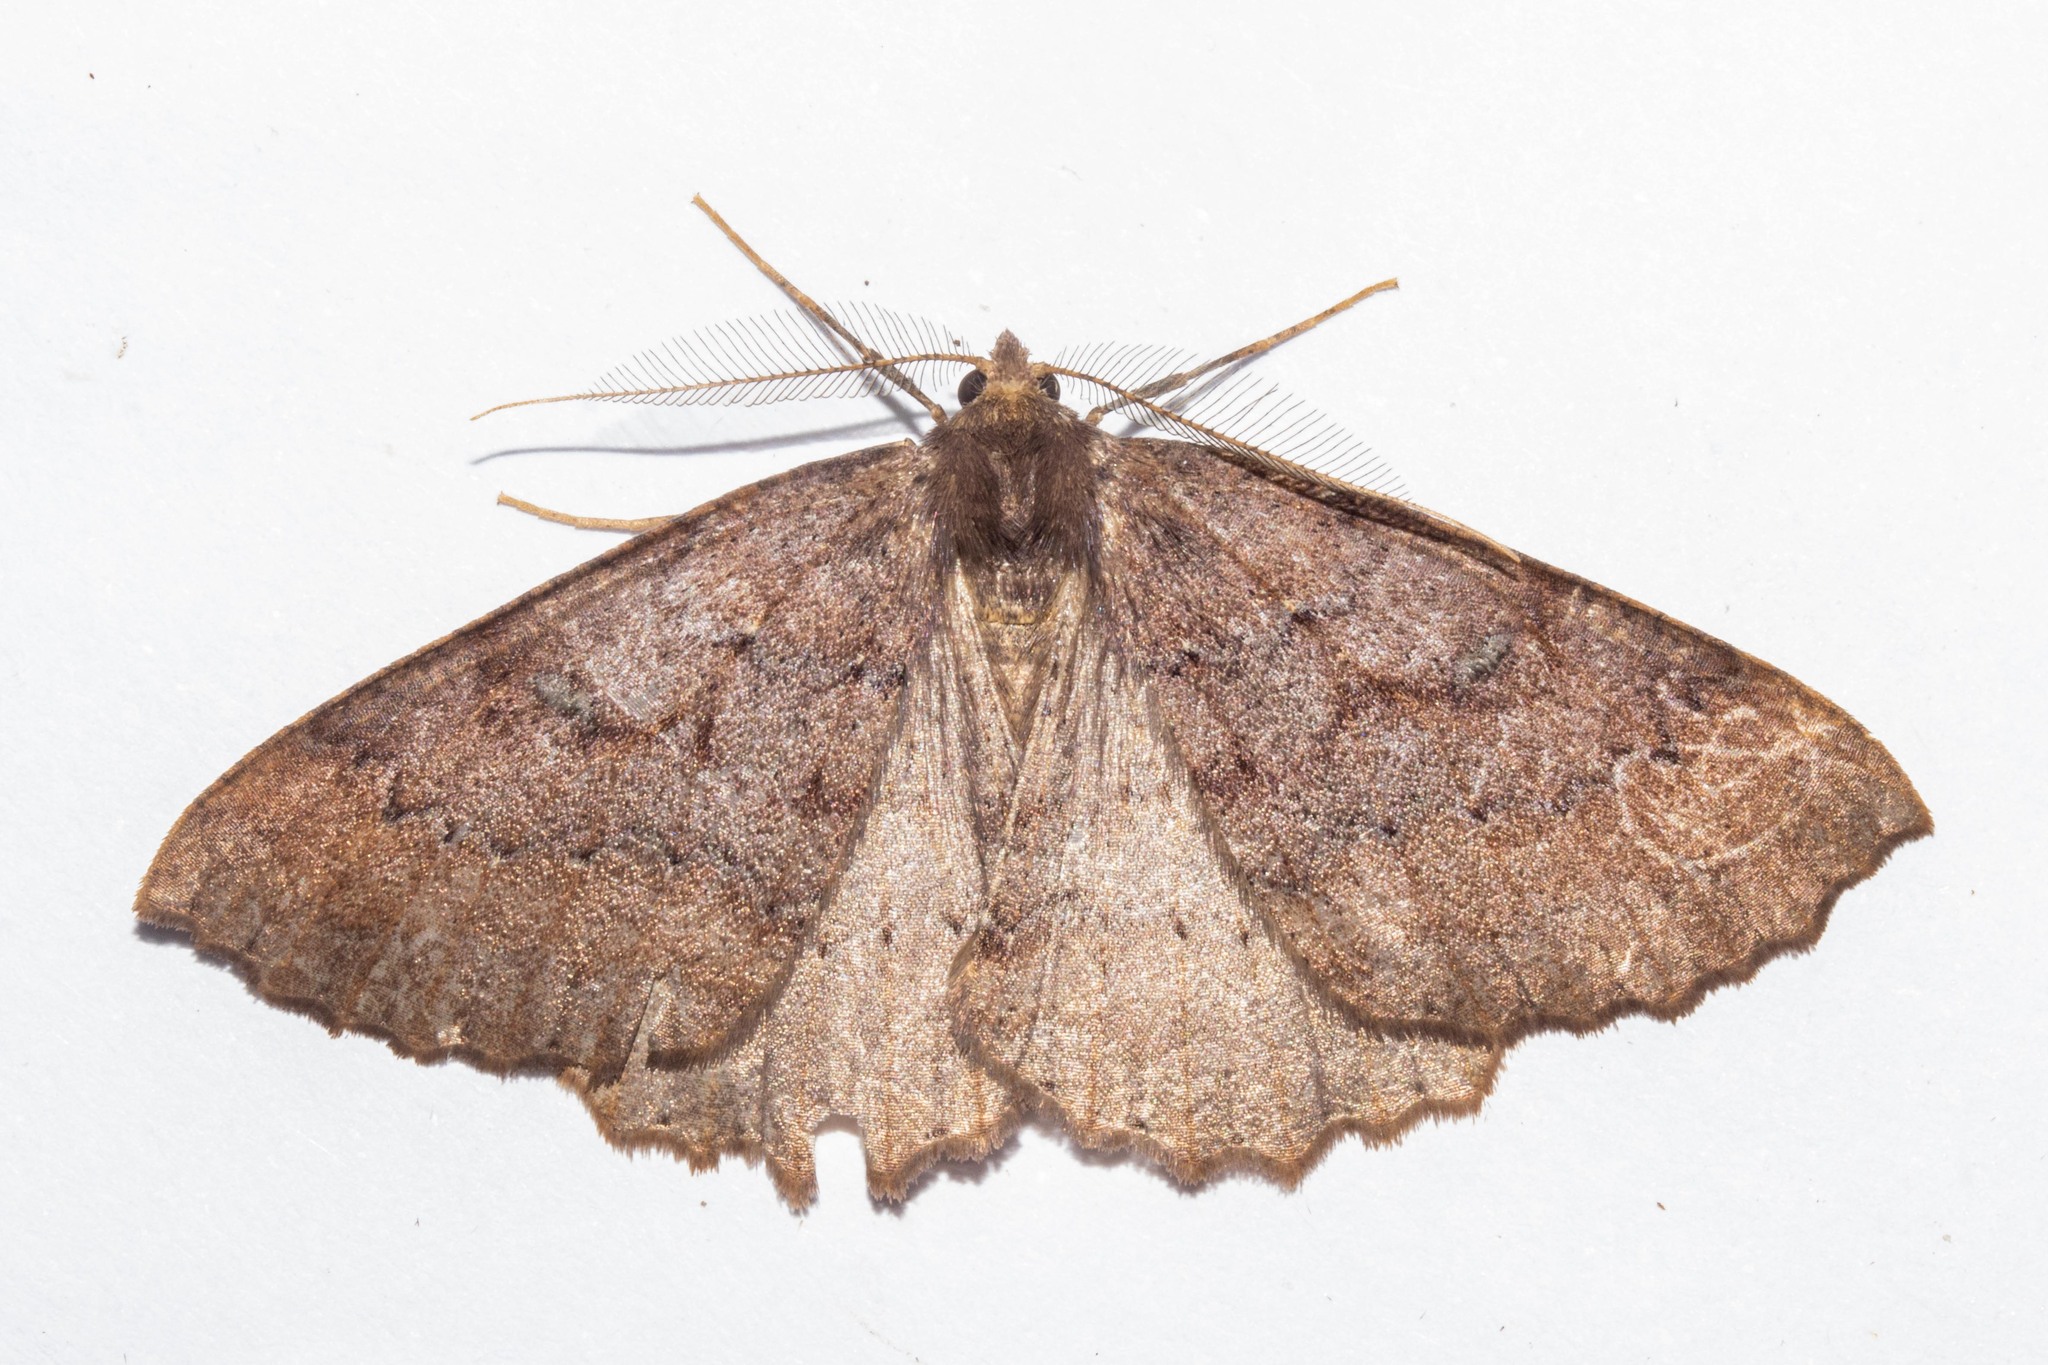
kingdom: Animalia
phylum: Arthropoda
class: Insecta
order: Lepidoptera
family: Geometridae
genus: Cleora
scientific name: Cleora scriptaria
